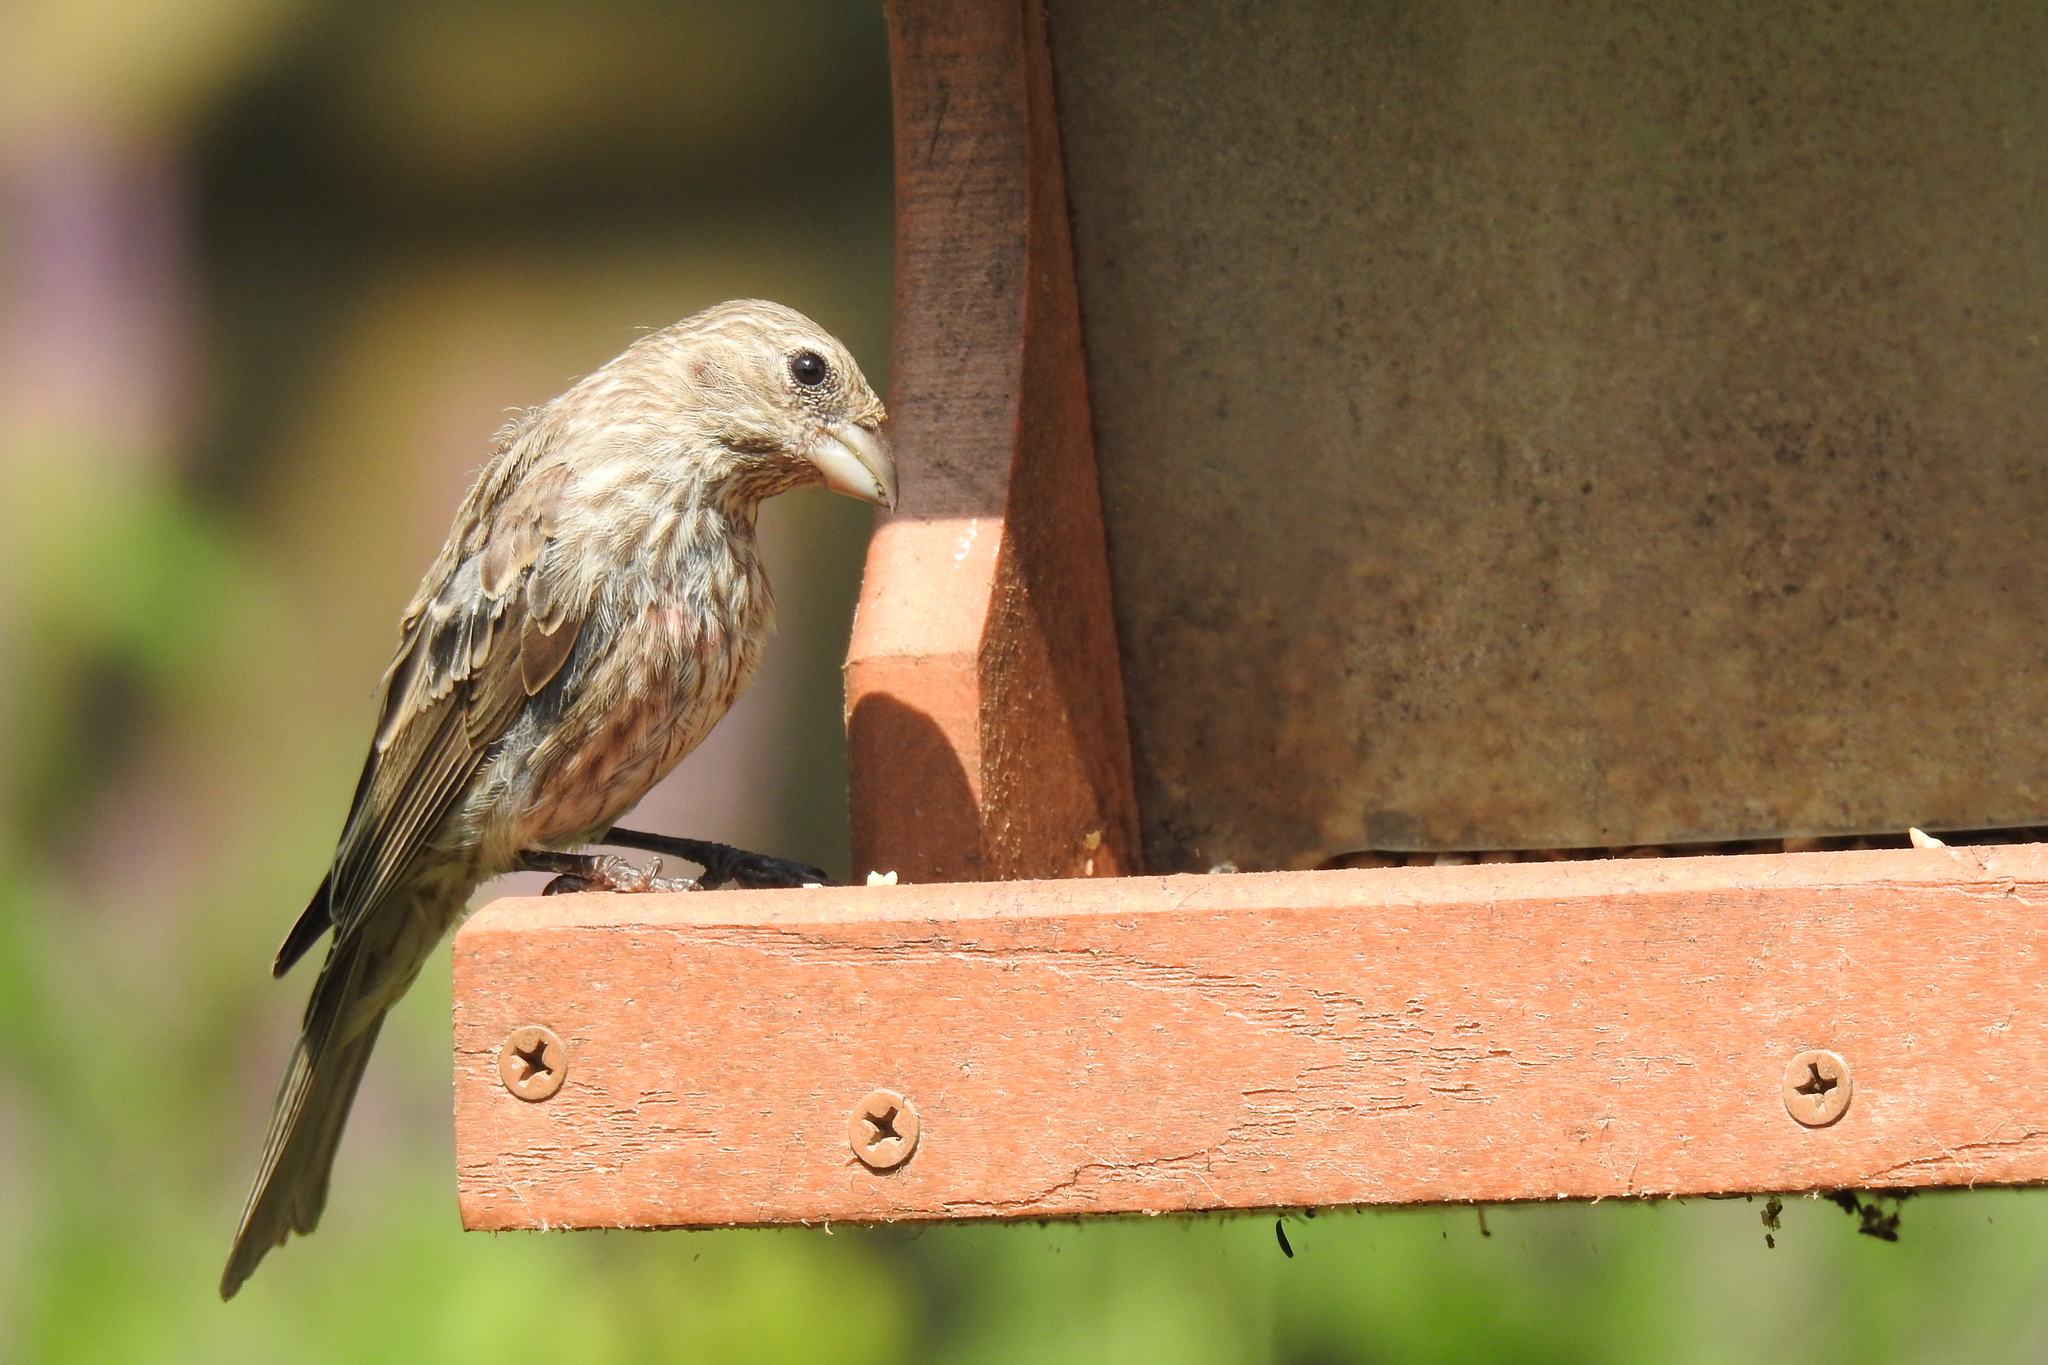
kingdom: Animalia
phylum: Chordata
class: Aves
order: Passeriformes
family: Fringillidae
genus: Haemorhous
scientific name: Haemorhous mexicanus
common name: House finch
